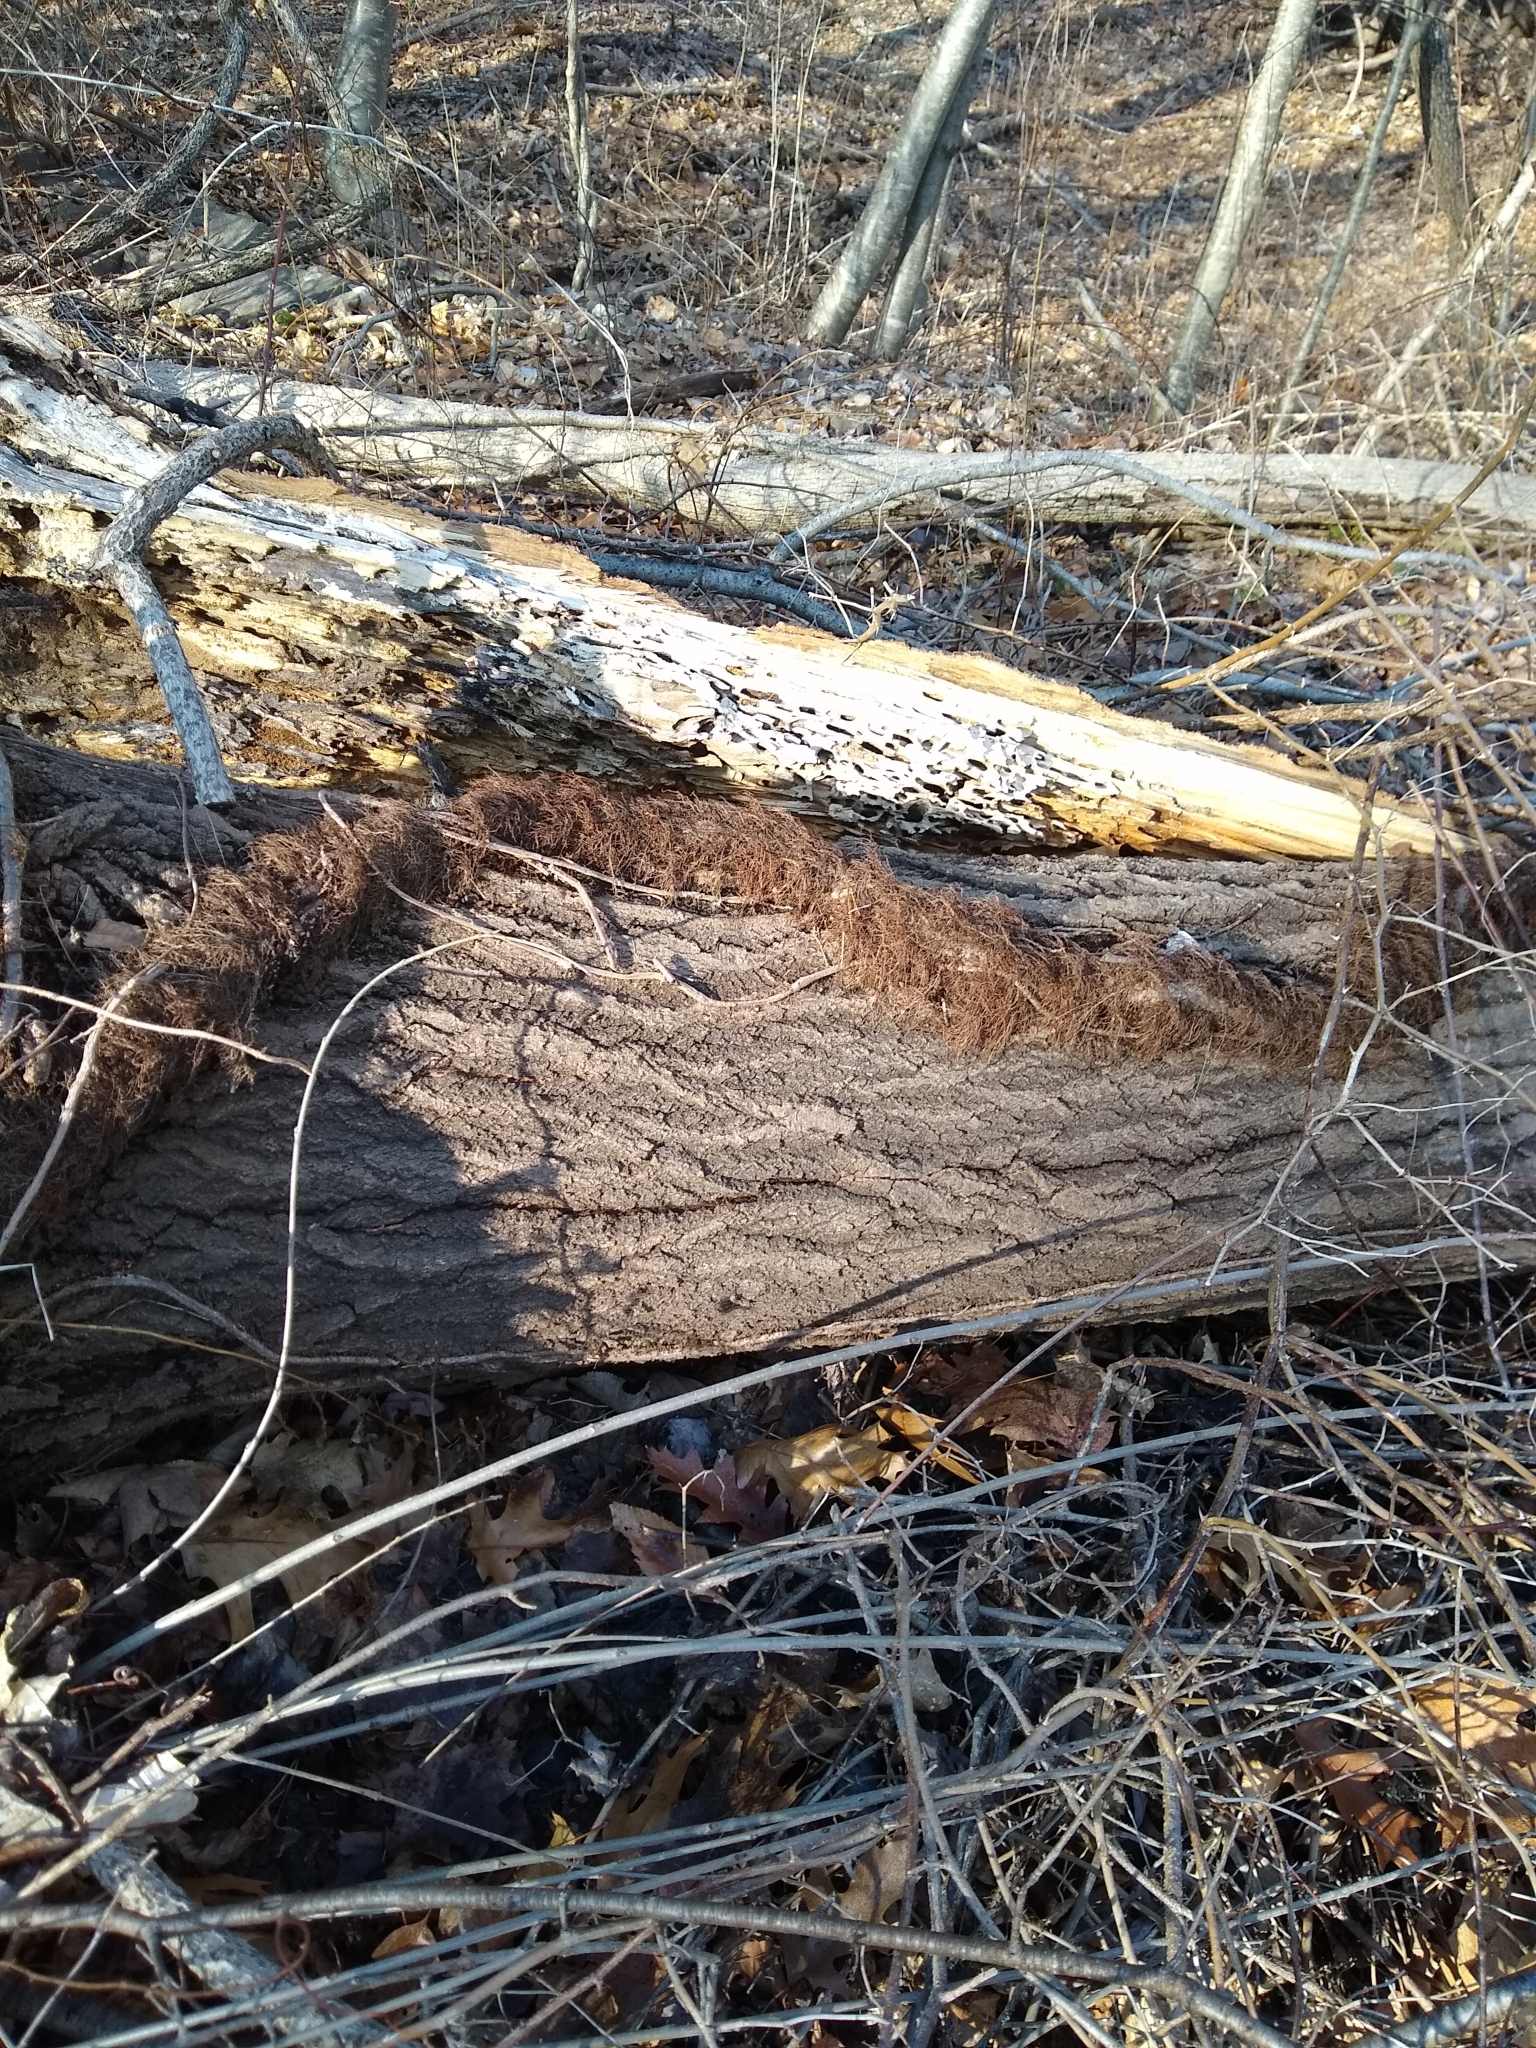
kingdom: Plantae
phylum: Tracheophyta
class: Magnoliopsida
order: Sapindales
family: Anacardiaceae
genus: Toxicodendron
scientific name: Toxicodendron radicans
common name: Poison ivy
